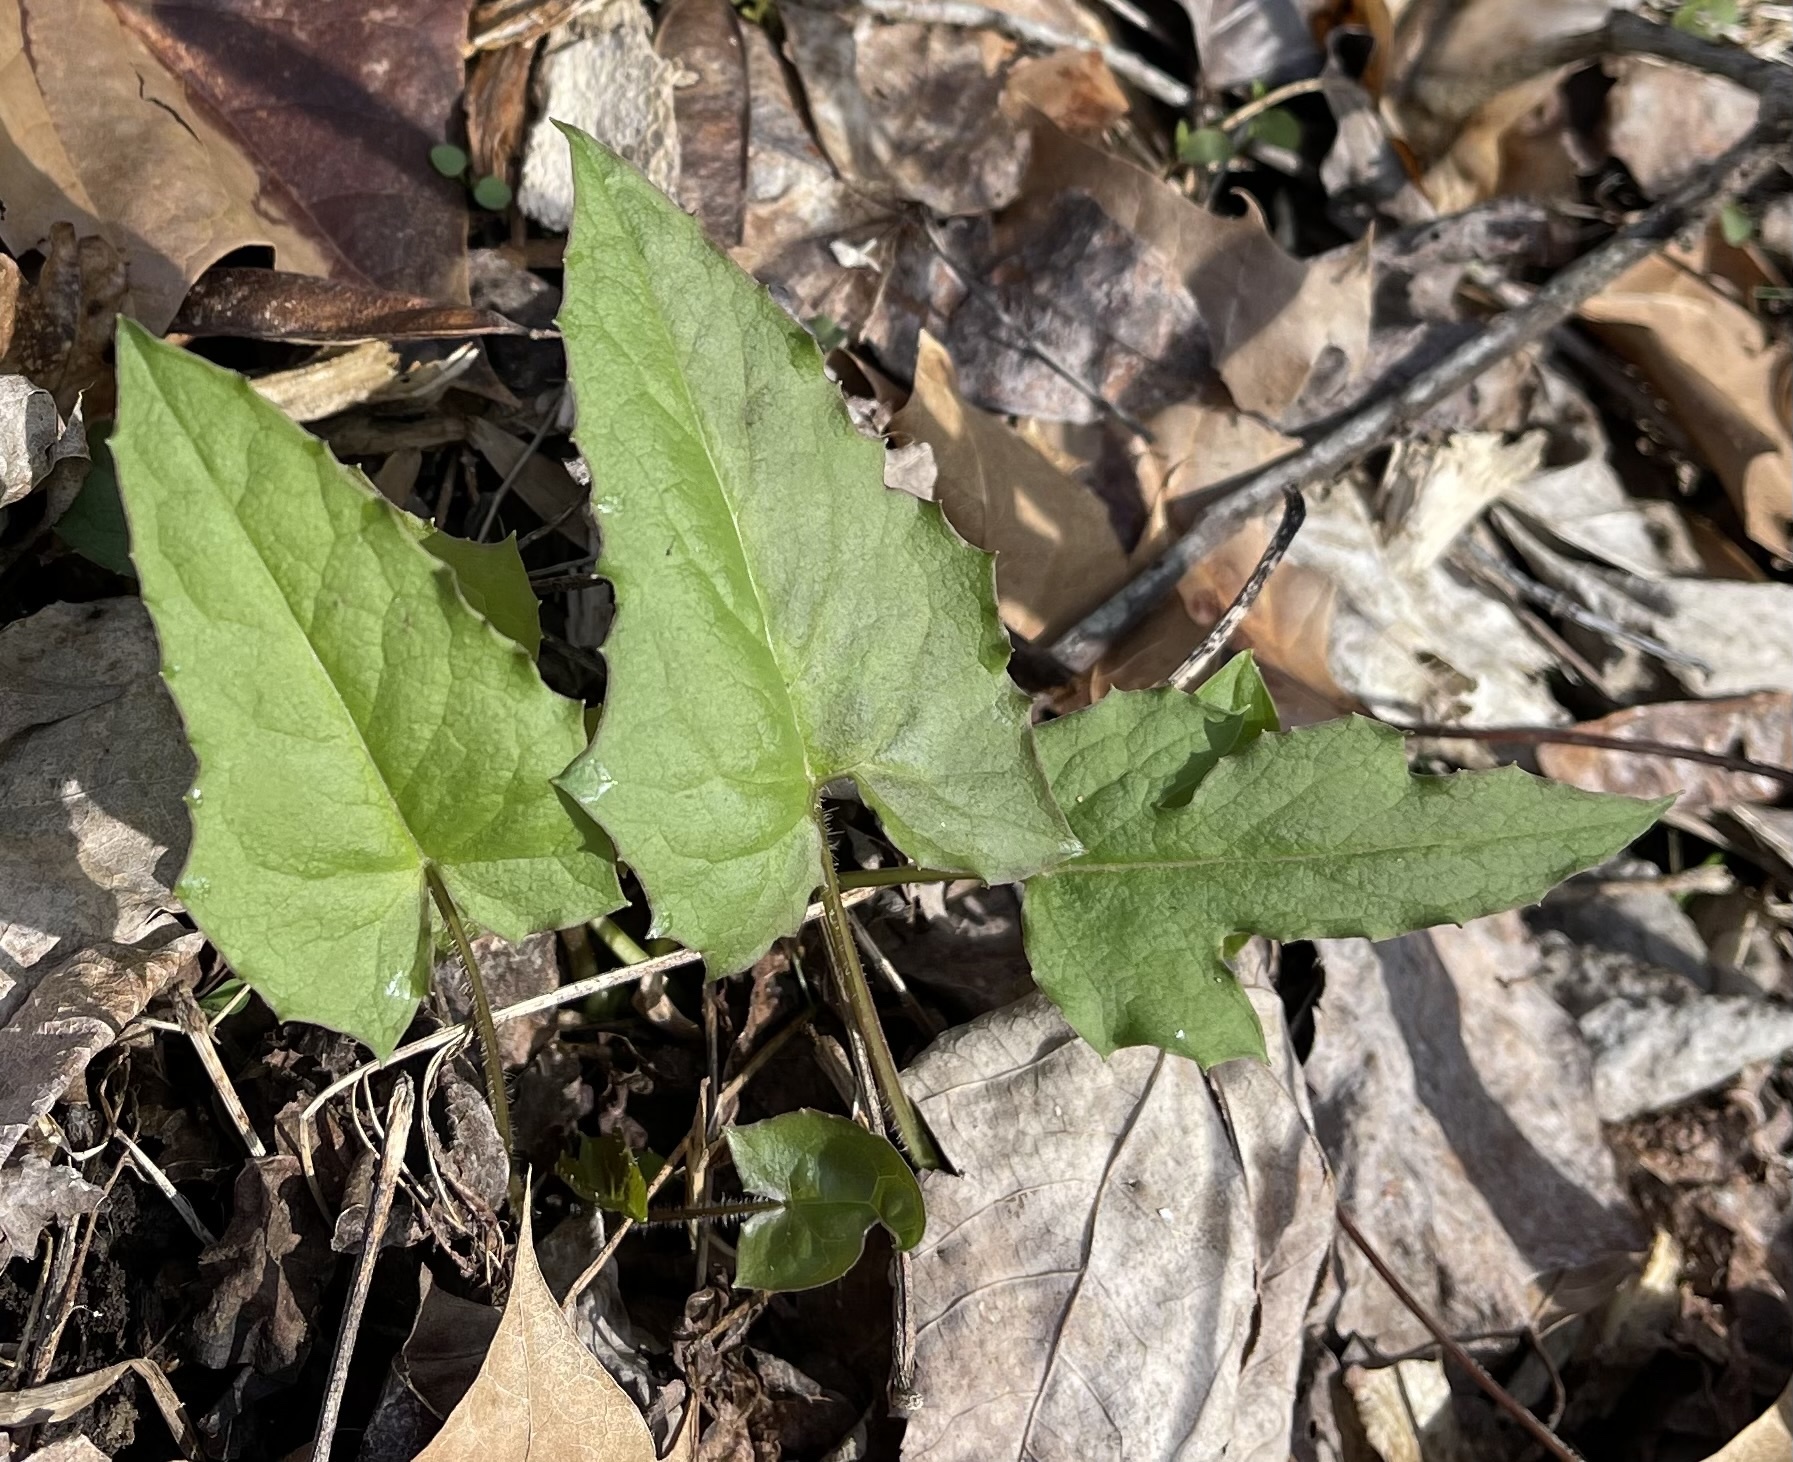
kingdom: Plantae
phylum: Tracheophyta
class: Magnoliopsida
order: Asterales
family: Asteraceae
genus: Nabalus
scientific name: Nabalus altissima
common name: Tall rattlesnakeroot
